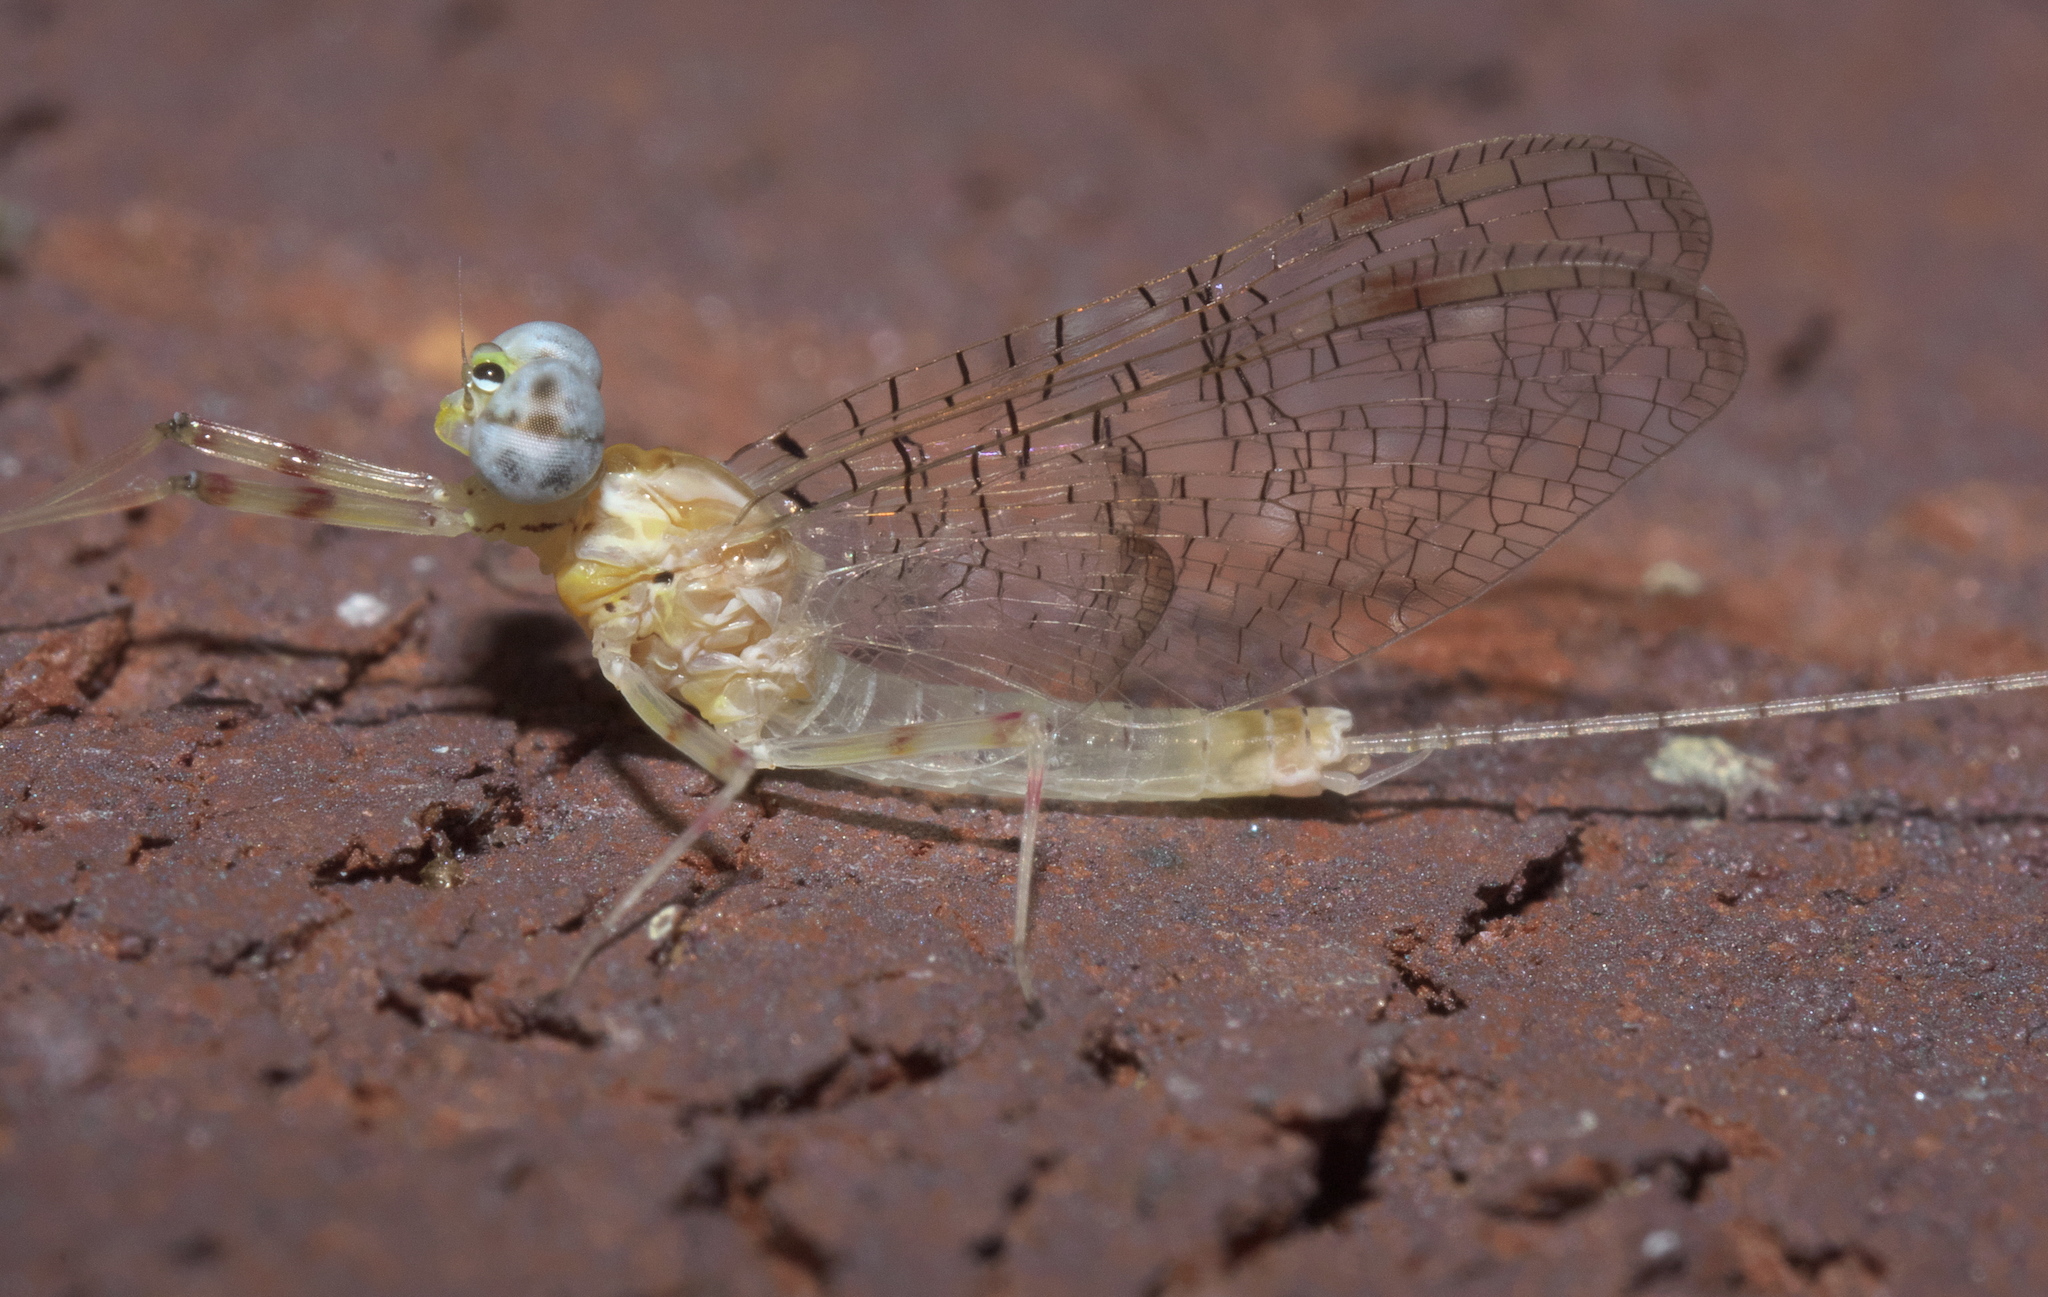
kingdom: Animalia
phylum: Arthropoda
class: Insecta
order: Ephemeroptera
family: Heptageniidae
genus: Stenonema
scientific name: Stenonema femoratum
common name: Dark cahill
